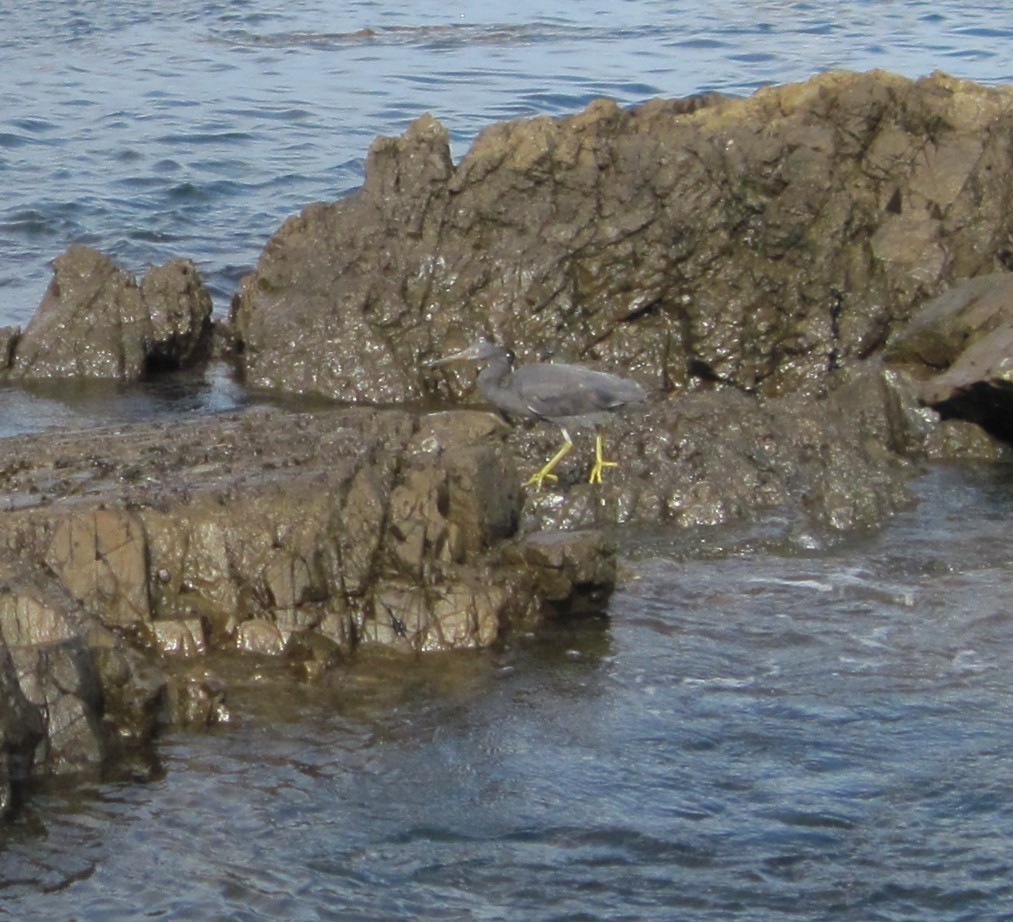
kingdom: Animalia
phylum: Chordata
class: Aves
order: Pelecaniformes
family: Ardeidae
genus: Egretta
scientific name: Egretta sacra
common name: Pacific reef heron
